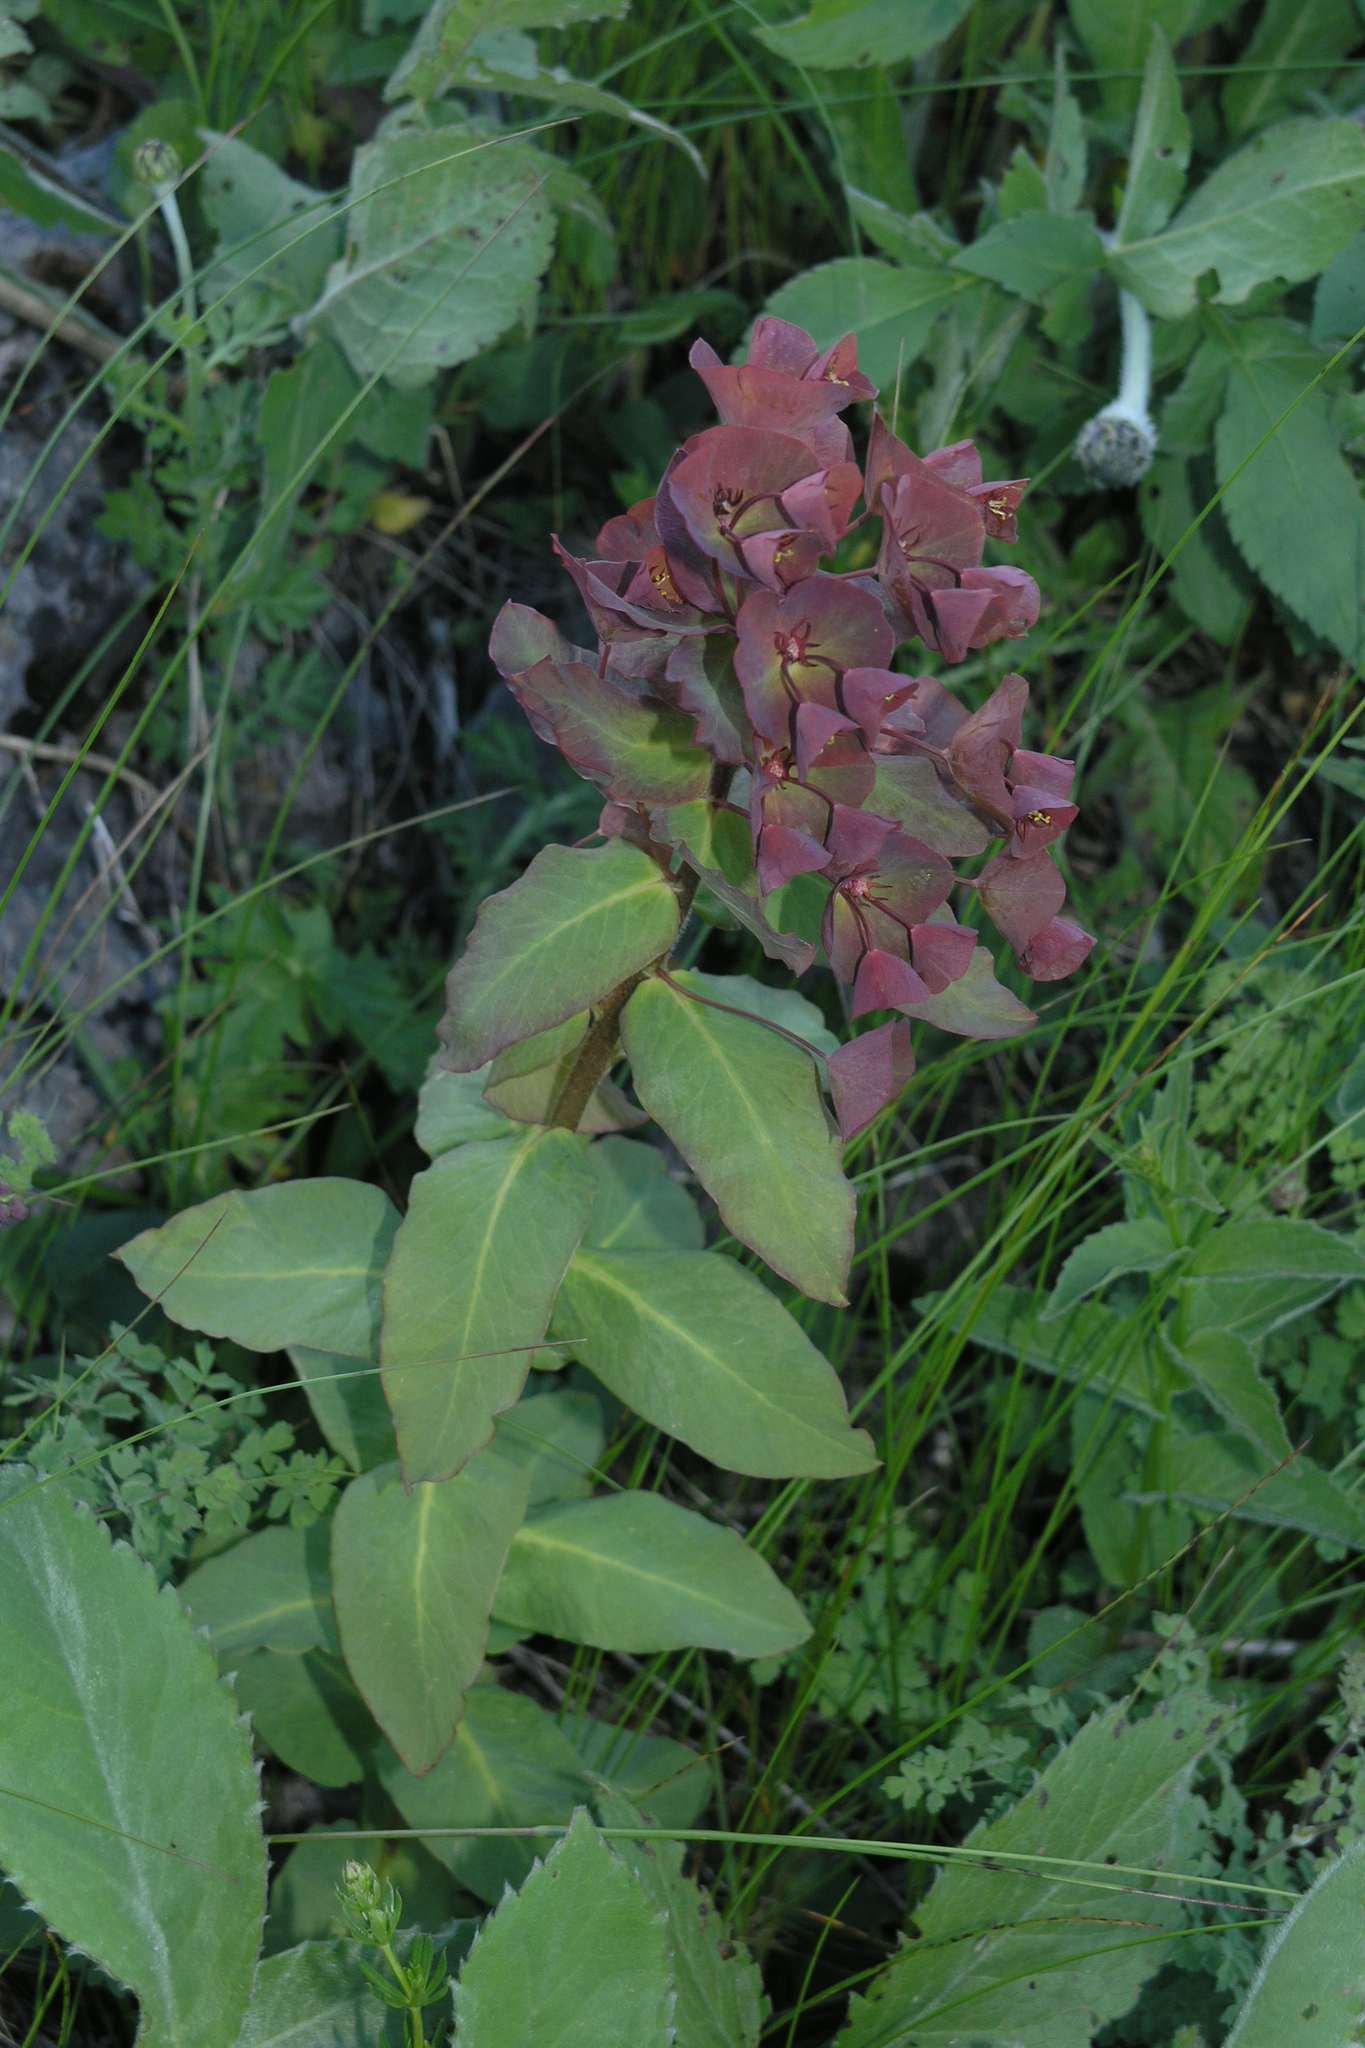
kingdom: Plantae
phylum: Tracheophyta
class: Magnoliopsida
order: Malpighiales
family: Euphorbiaceae
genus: Euphorbia
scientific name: Euphorbia oblongifolia
